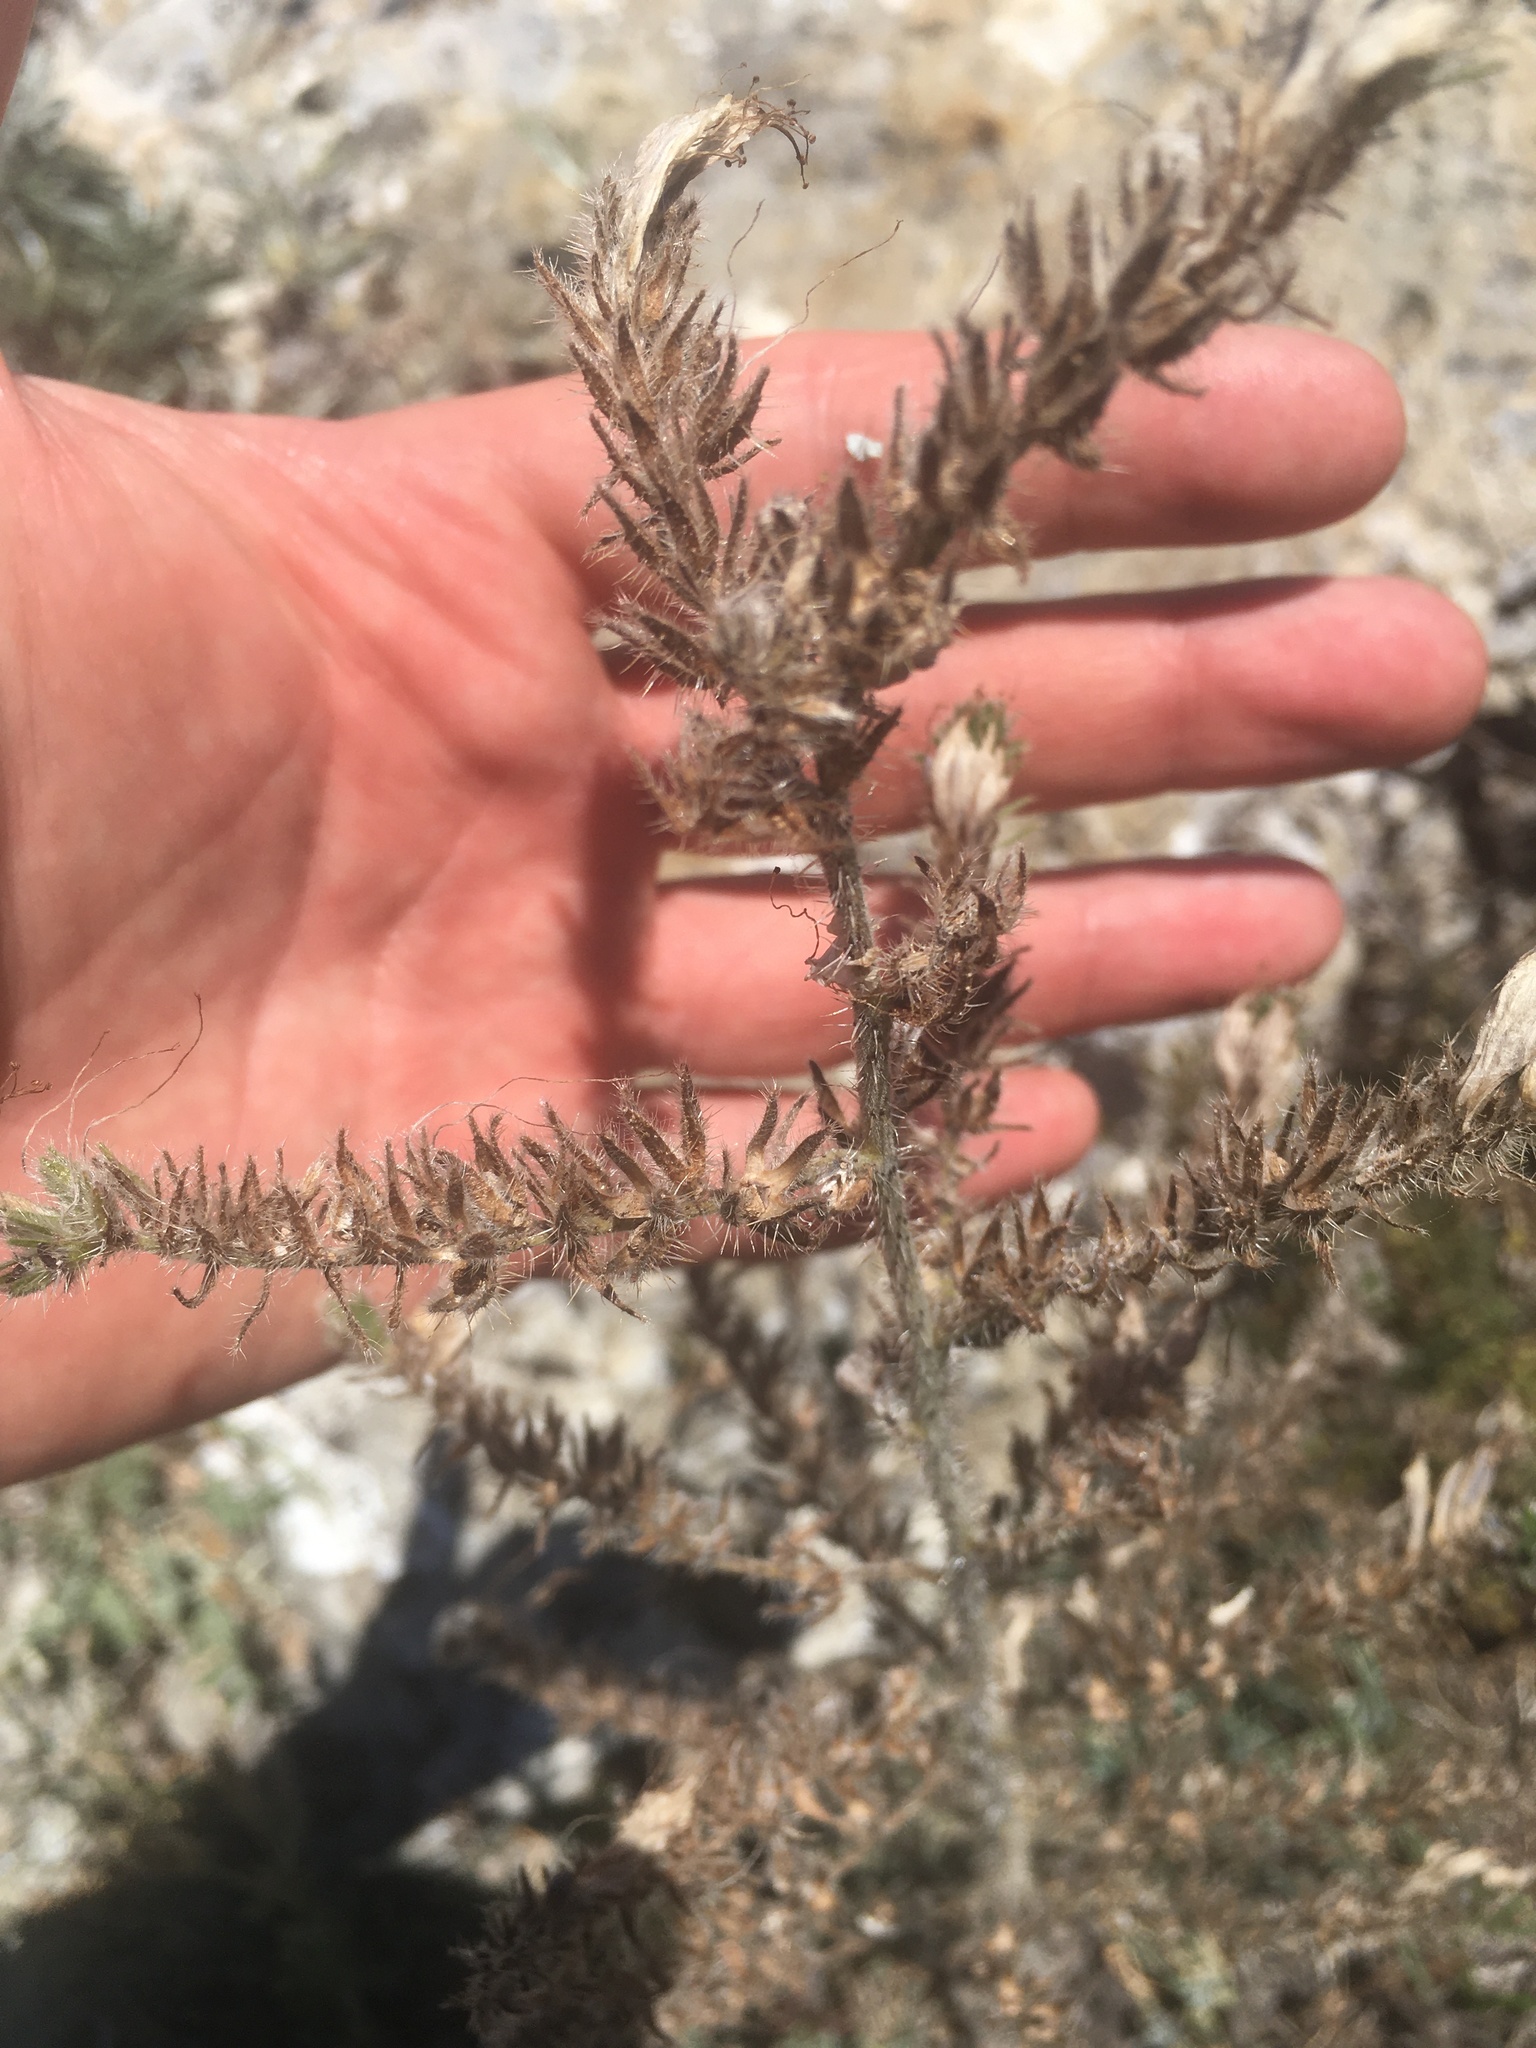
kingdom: Plantae
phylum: Tracheophyta
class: Magnoliopsida
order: Boraginales
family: Boraginaceae
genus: Echium
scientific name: Echium italicum
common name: Italian viper's bugloss
